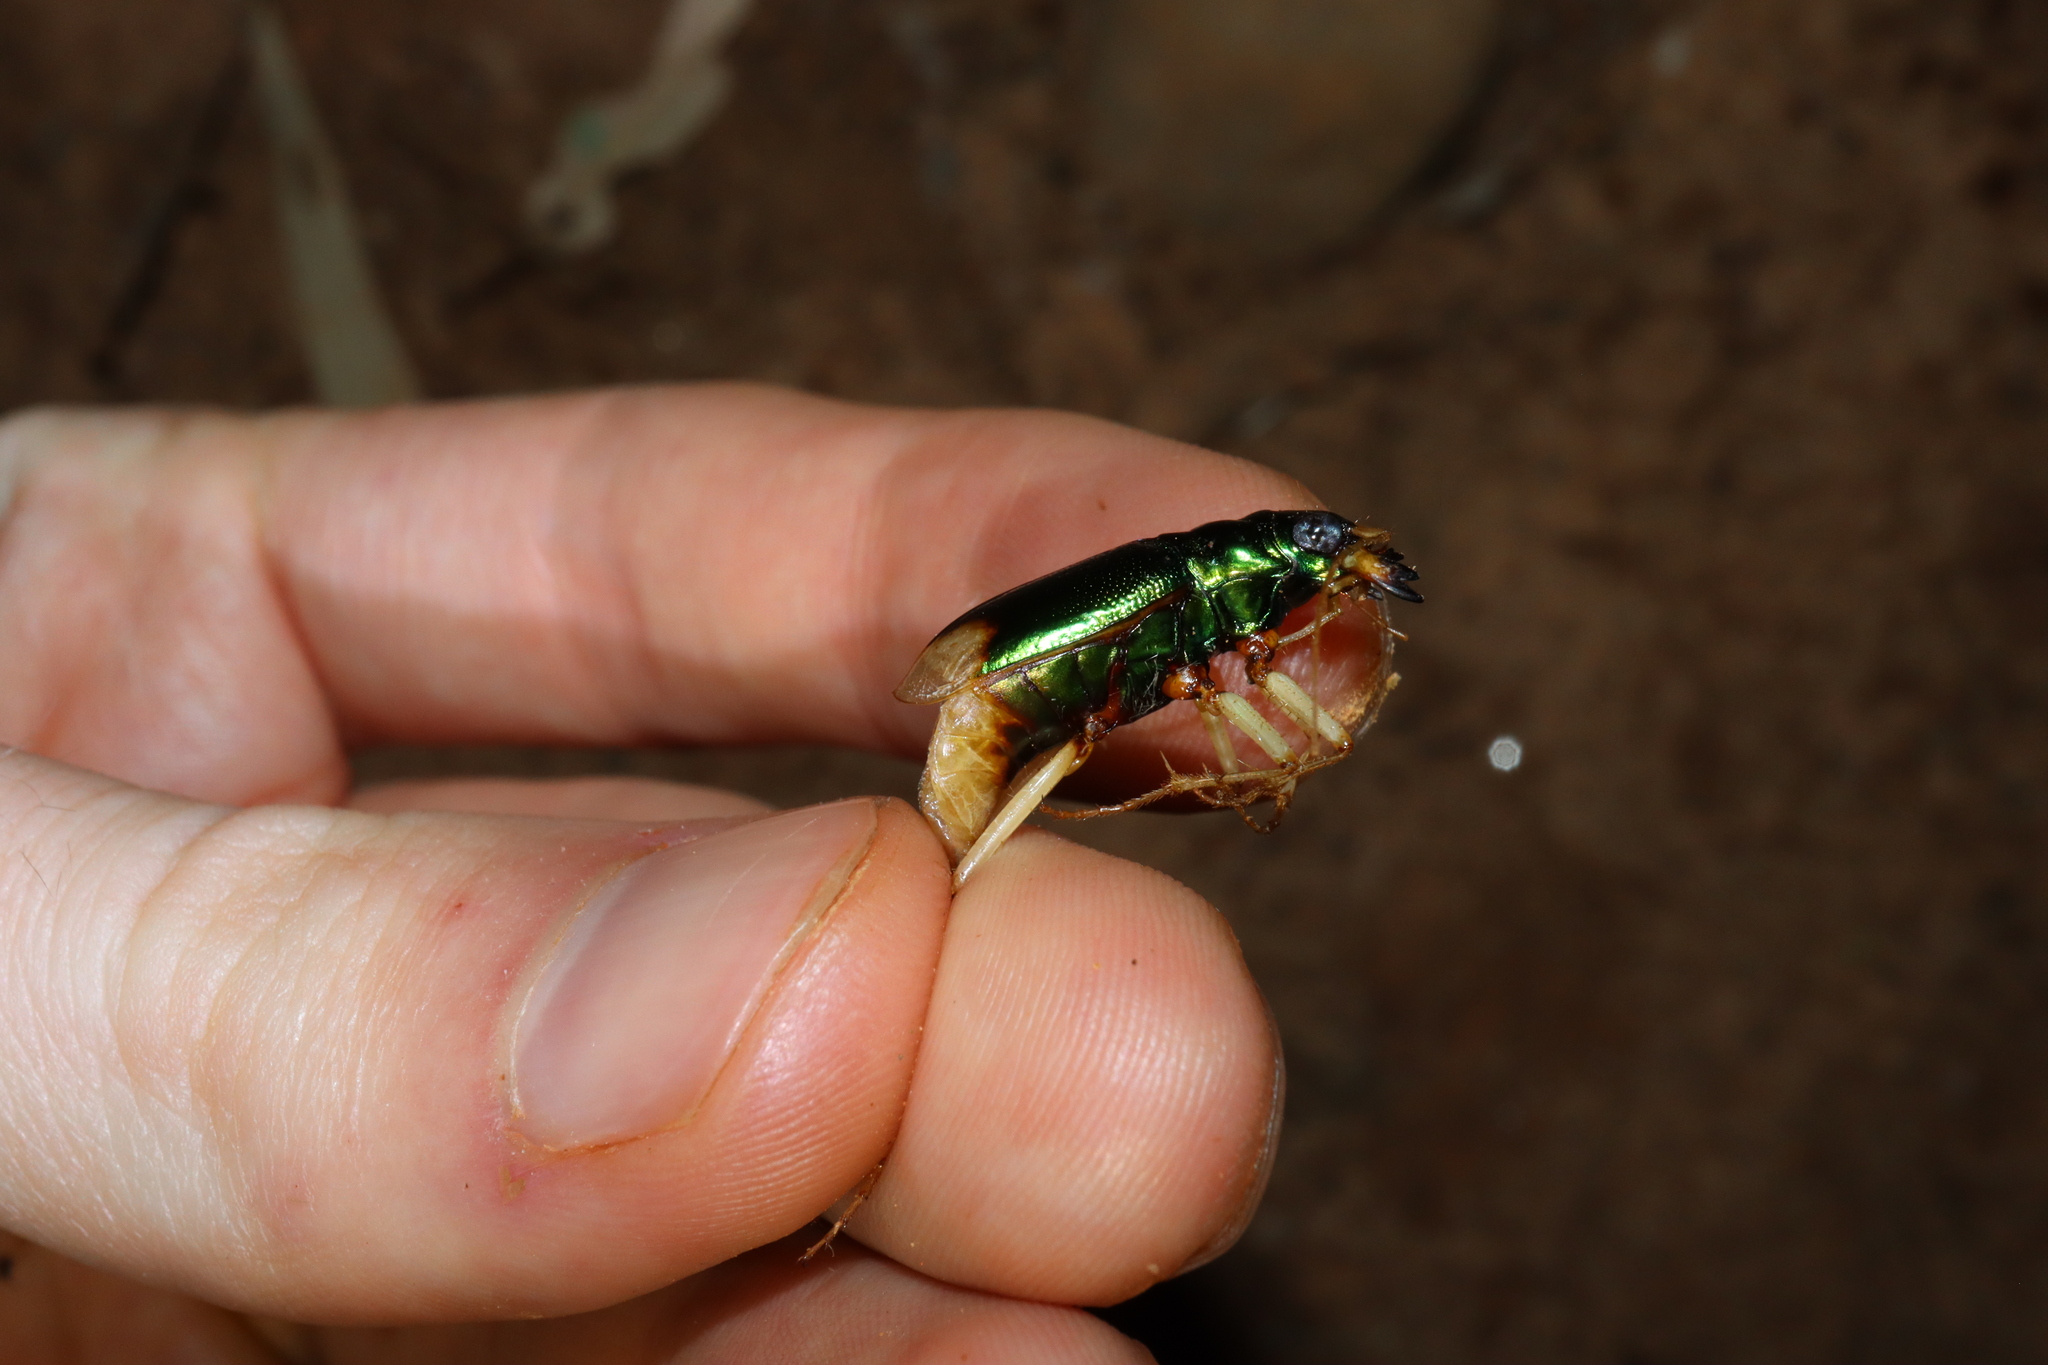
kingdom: Animalia
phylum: Arthropoda
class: Insecta
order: Coleoptera
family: Carabidae
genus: Pseudotetracha
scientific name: Pseudotetracha australis
